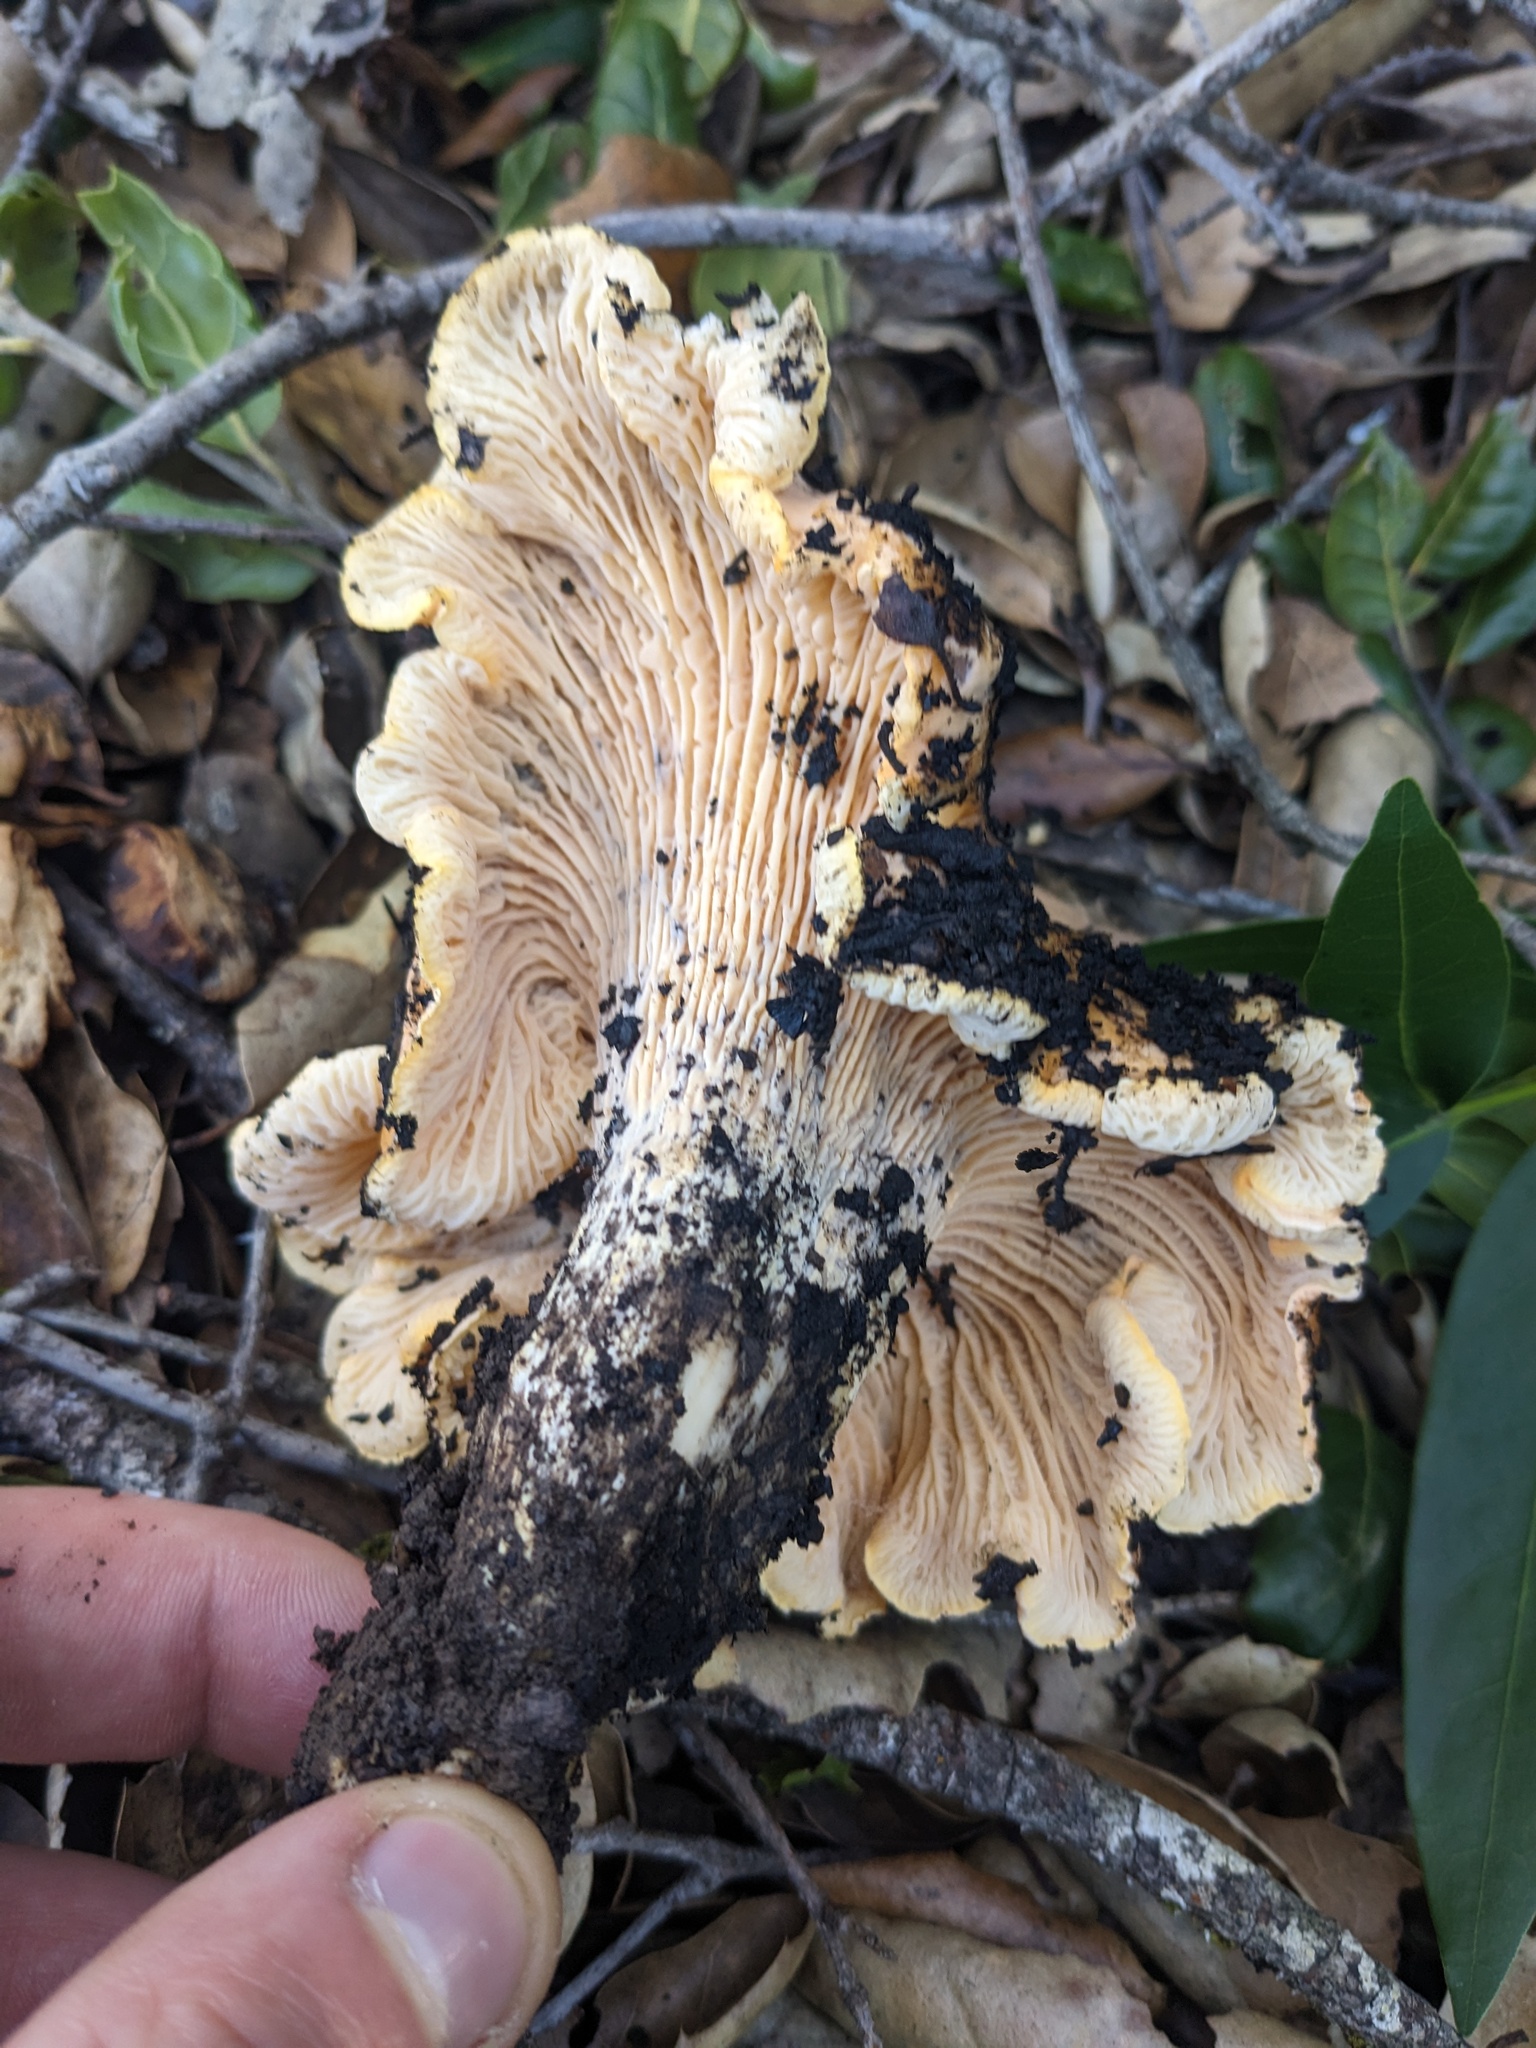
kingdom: Fungi
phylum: Basidiomycota
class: Agaricomycetes
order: Cantharellales
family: Hydnaceae
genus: Cantharellus
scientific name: Cantharellus californicus
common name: California golden chanterelle
